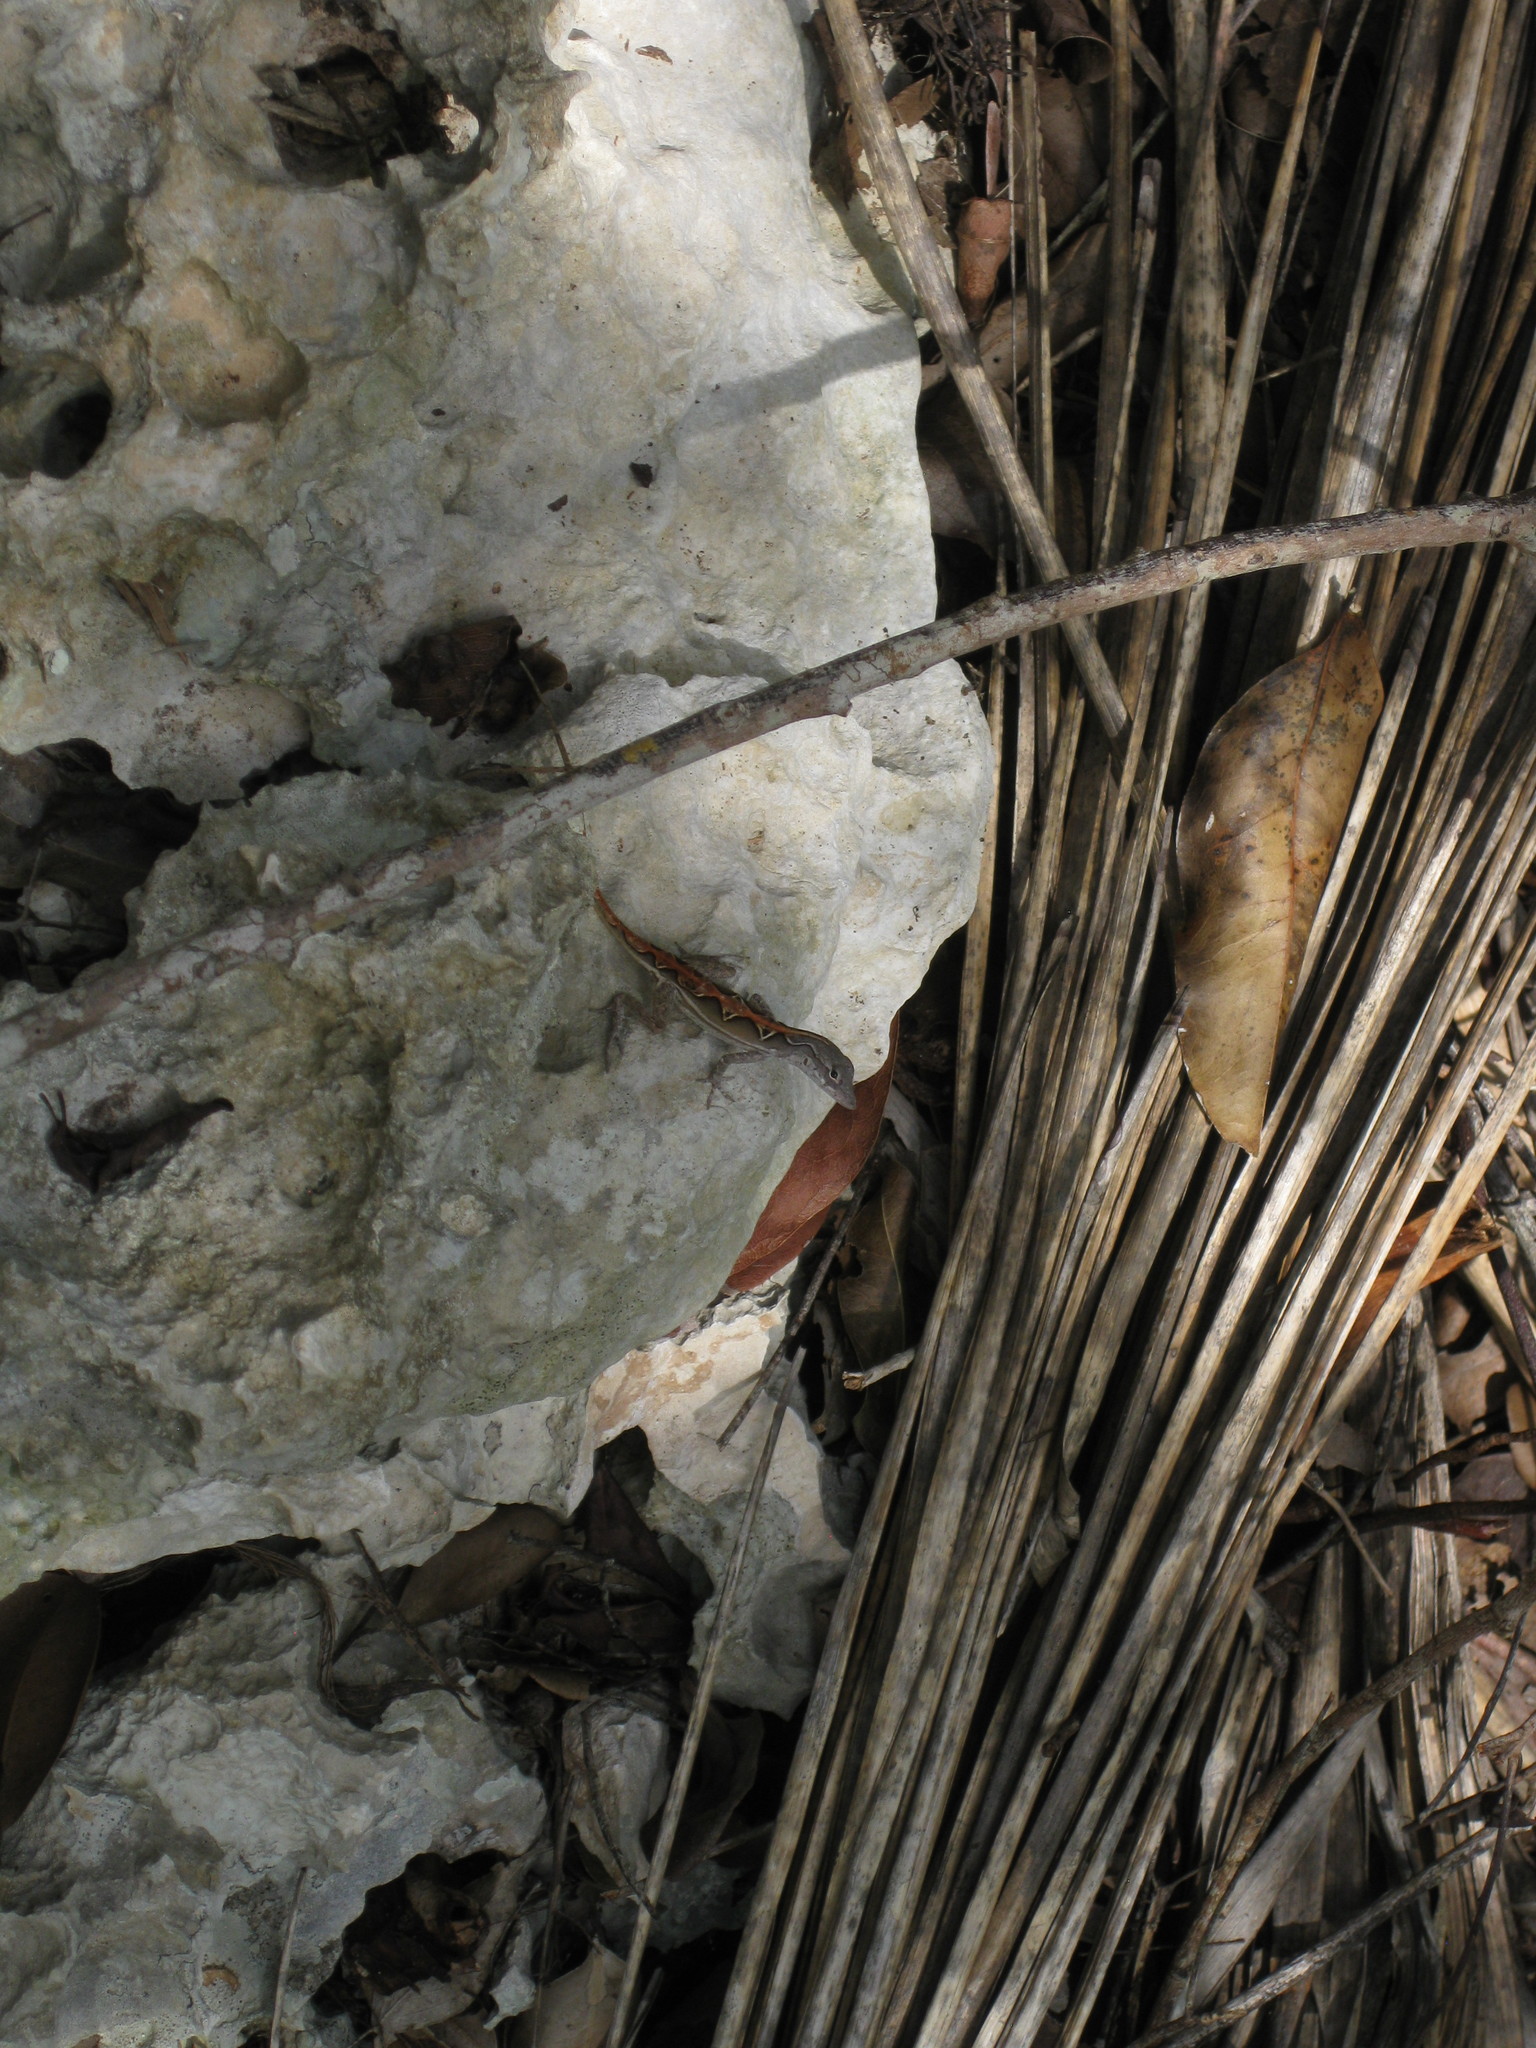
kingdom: Animalia
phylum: Chordata
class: Squamata
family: Dactyloidae
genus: Anolis
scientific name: Anolis sagrei
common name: Brown anole
